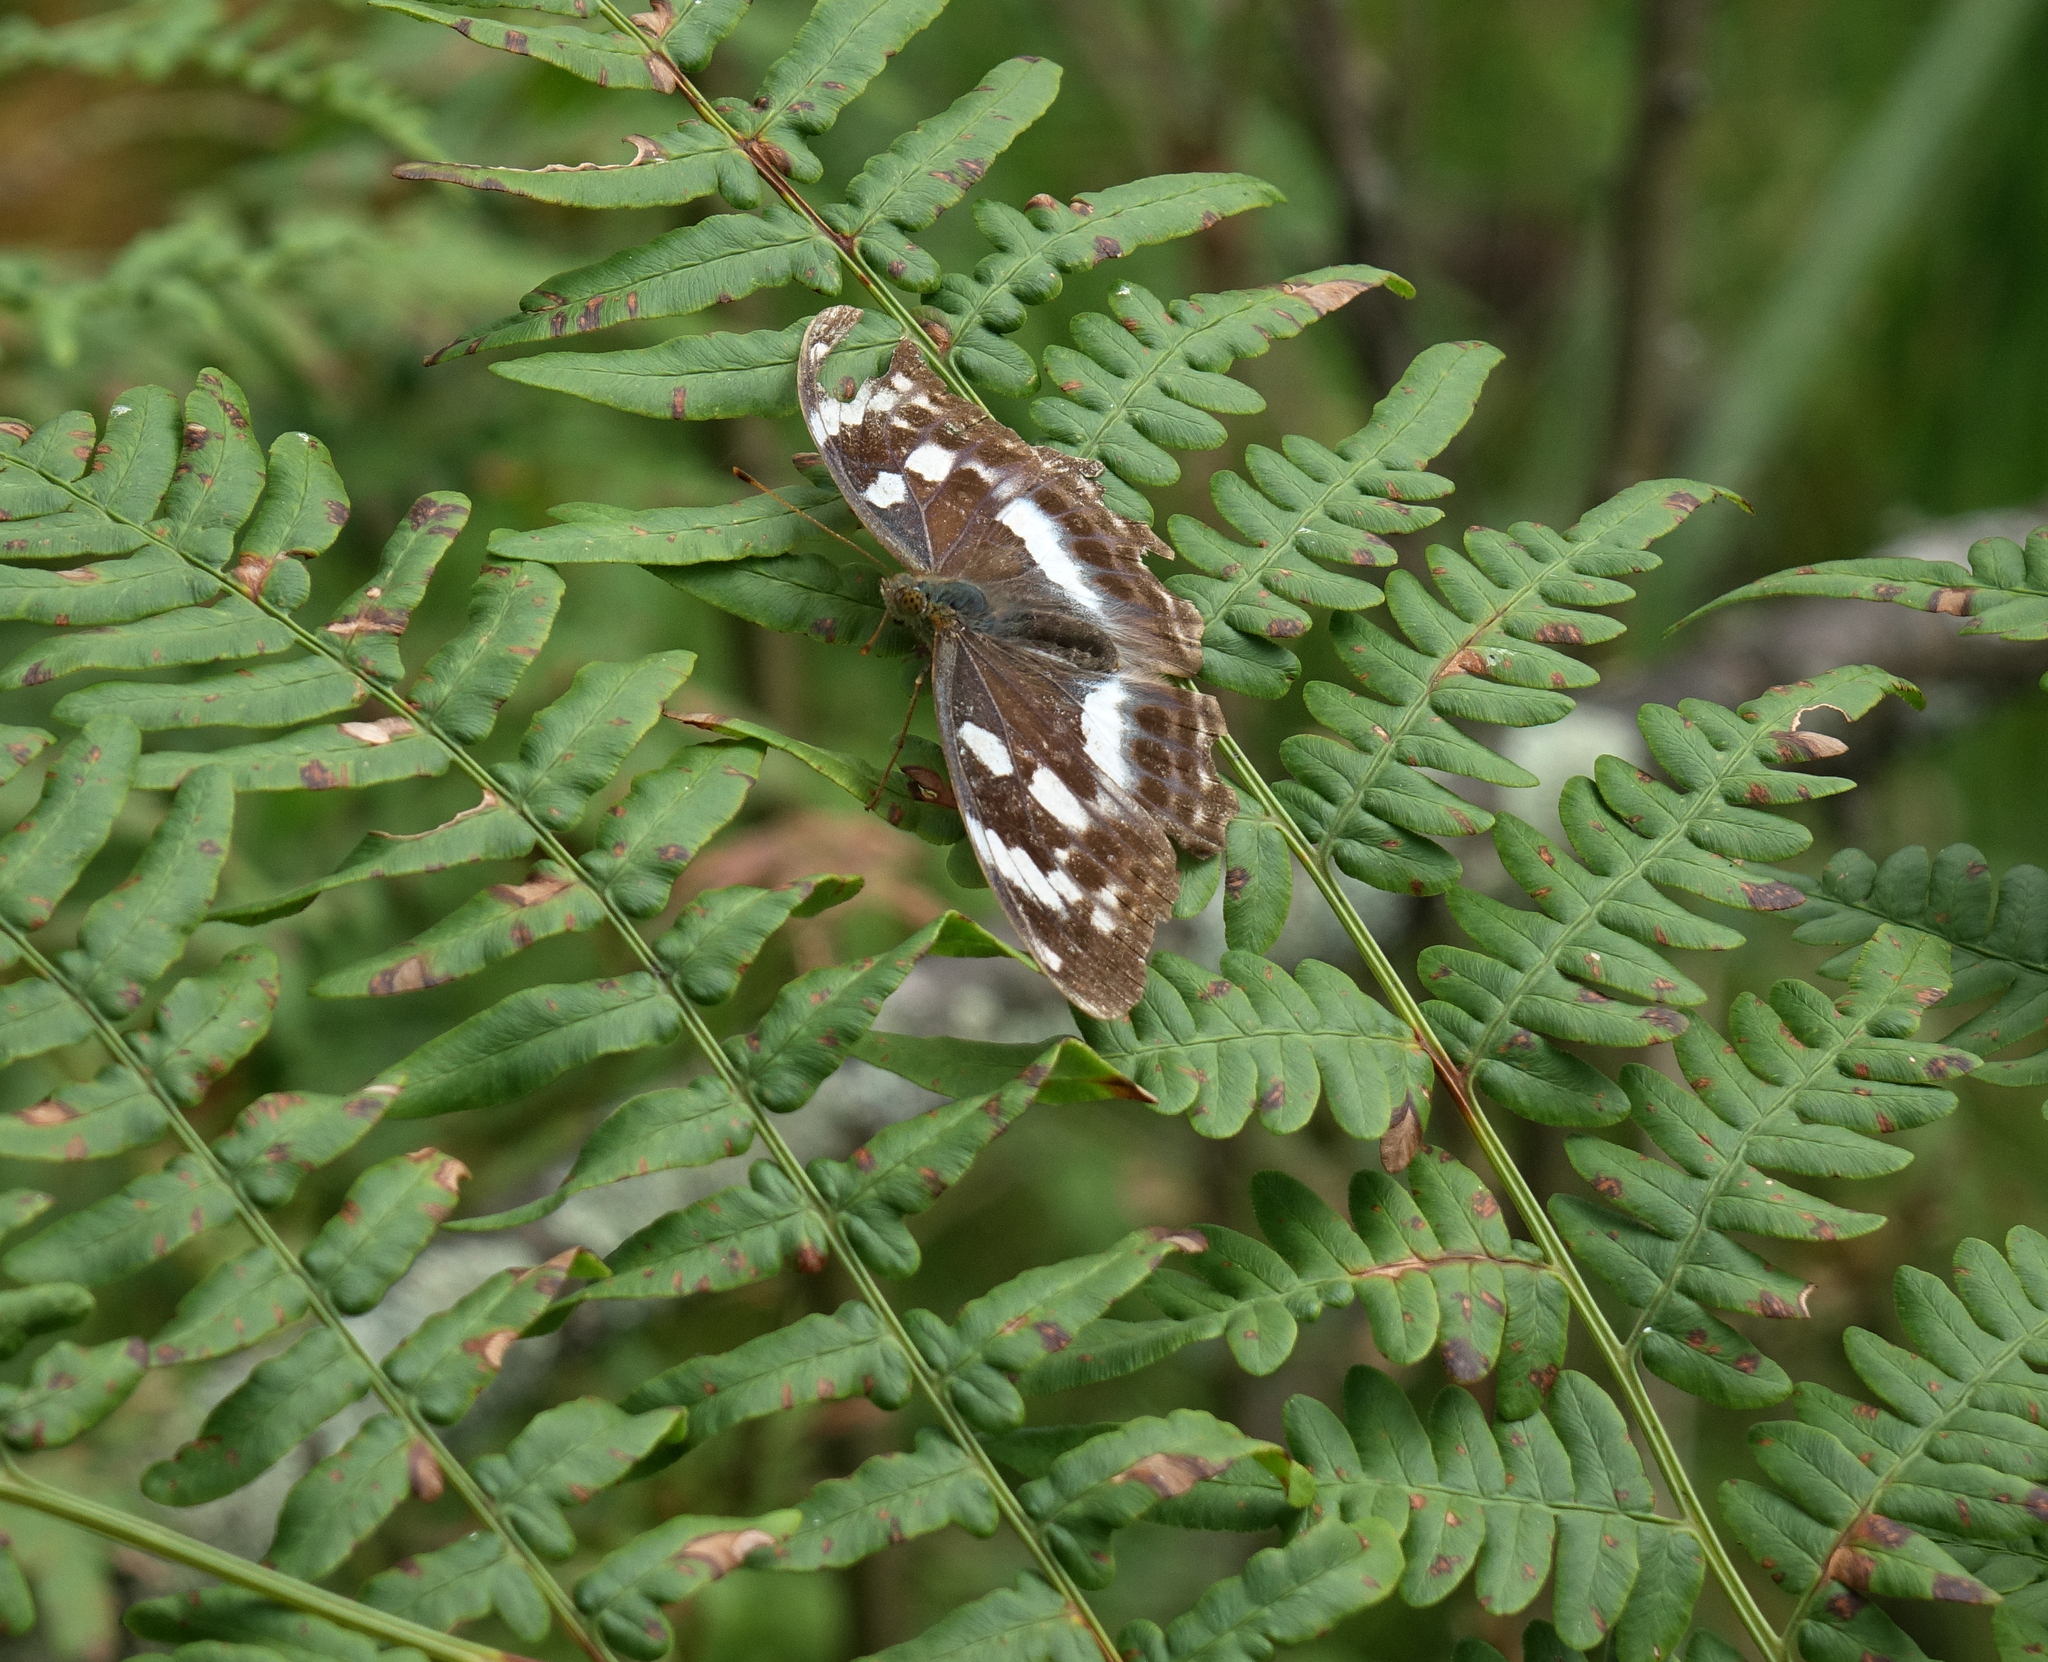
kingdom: Animalia
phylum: Arthropoda
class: Insecta
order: Lepidoptera
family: Nymphalidae
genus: Damora
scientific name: Damora sagana
